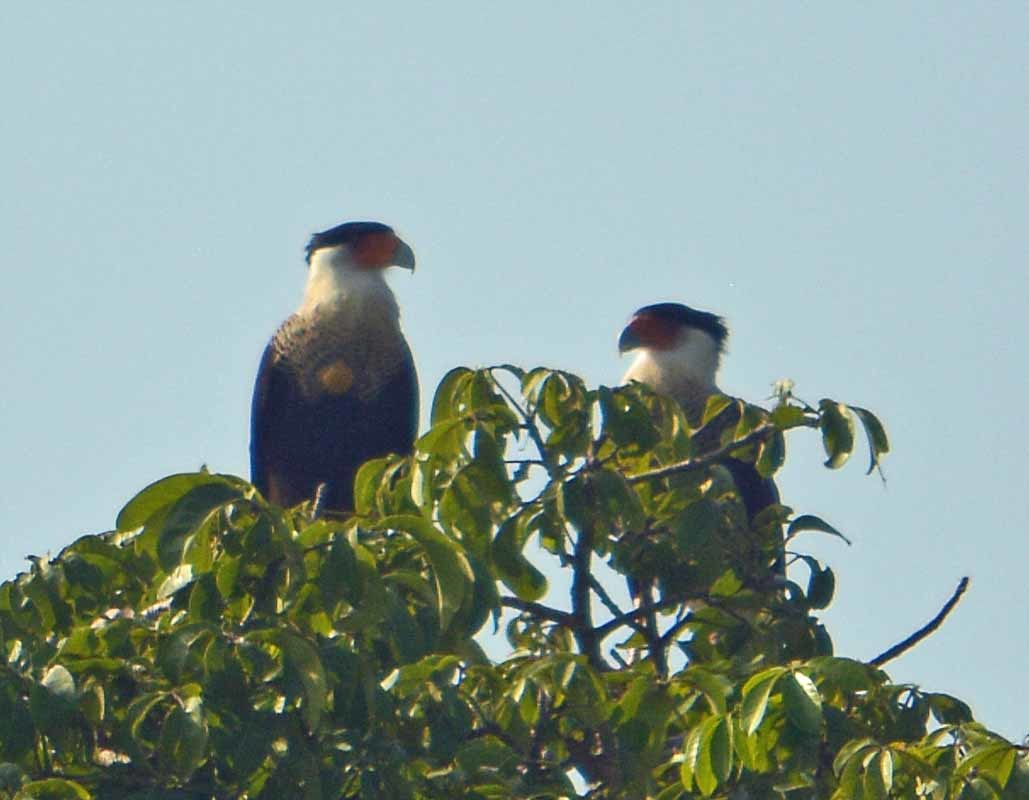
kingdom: Animalia
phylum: Chordata
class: Aves
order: Falconiformes
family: Falconidae
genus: Caracara
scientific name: Caracara plancus
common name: Southern caracara
